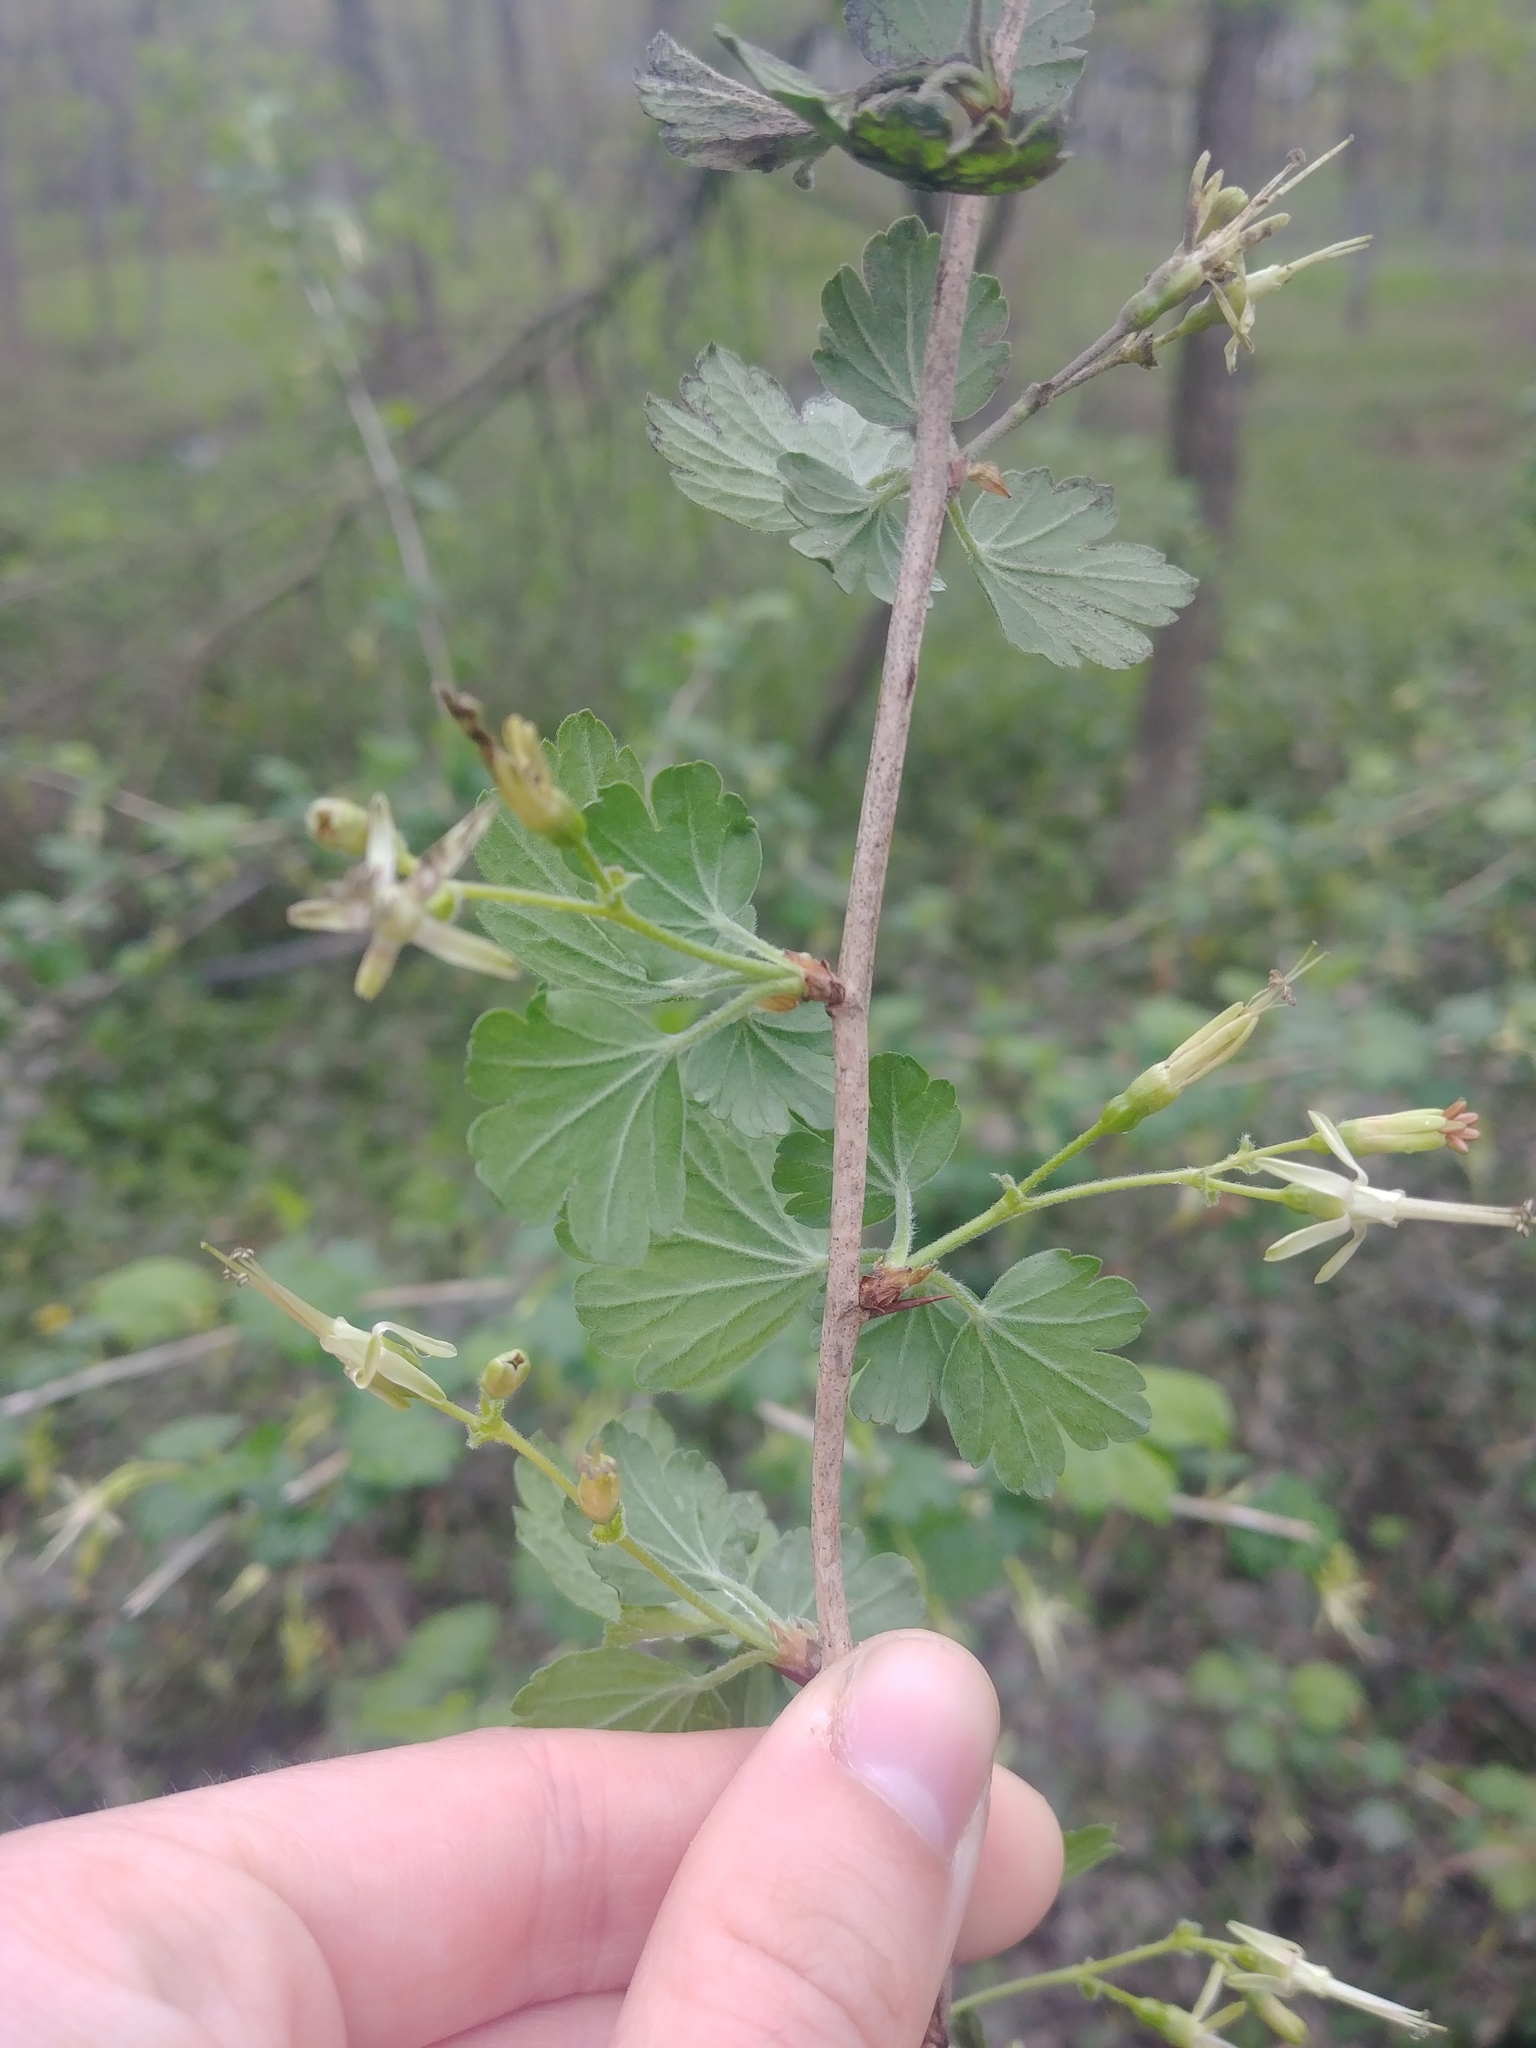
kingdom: Plantae
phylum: Tracheophyta
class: Magnoliopsida
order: Saxifragales
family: Grossulariaceae
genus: Ribes
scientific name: Ribes missouriense
